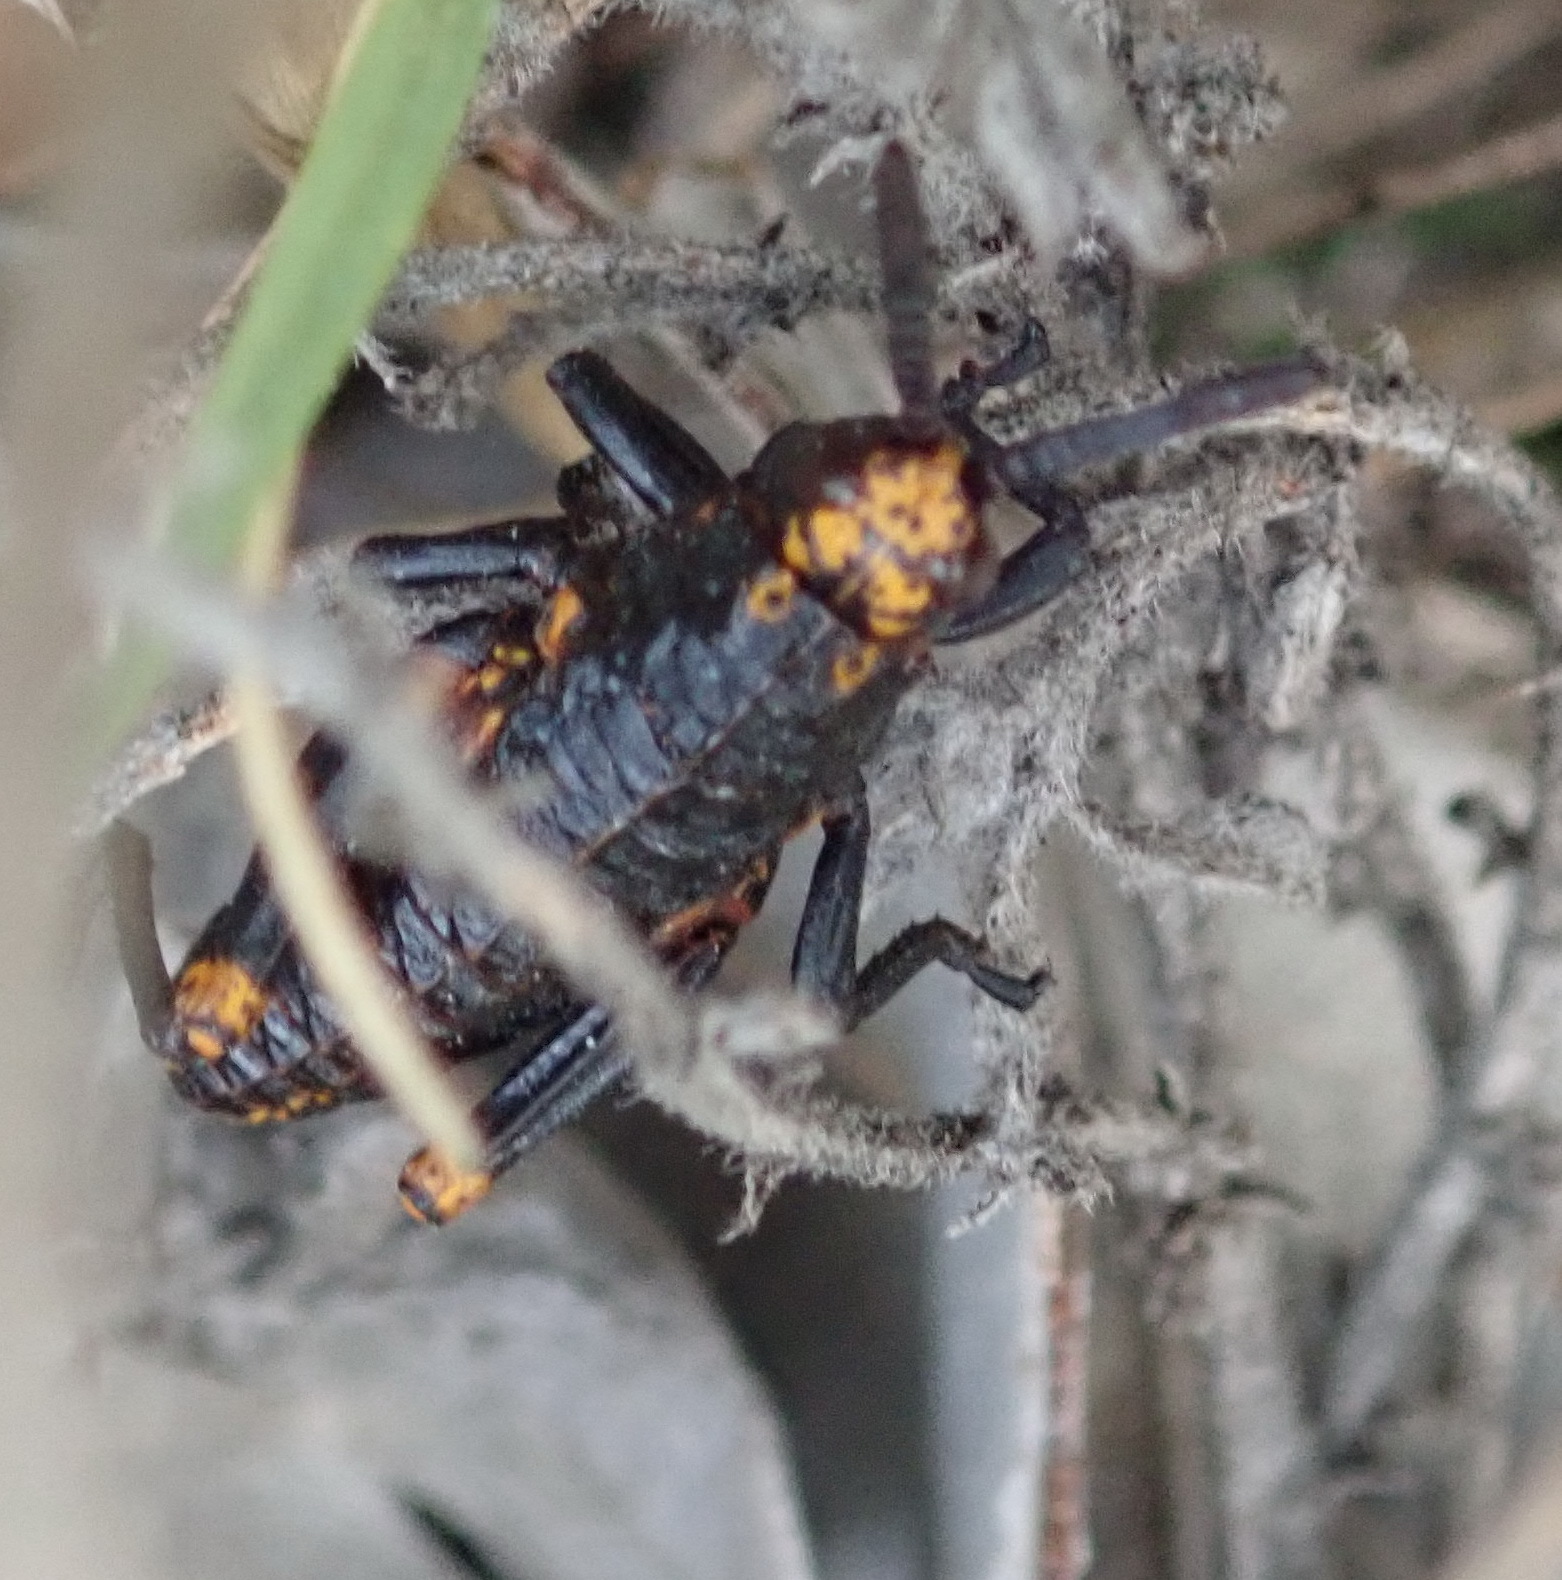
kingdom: Animalia
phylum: Arthropoda
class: Insecta
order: Orthoptera
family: Pyrgomorphidae
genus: Dictyophorus
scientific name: Dictyophorus spumans
